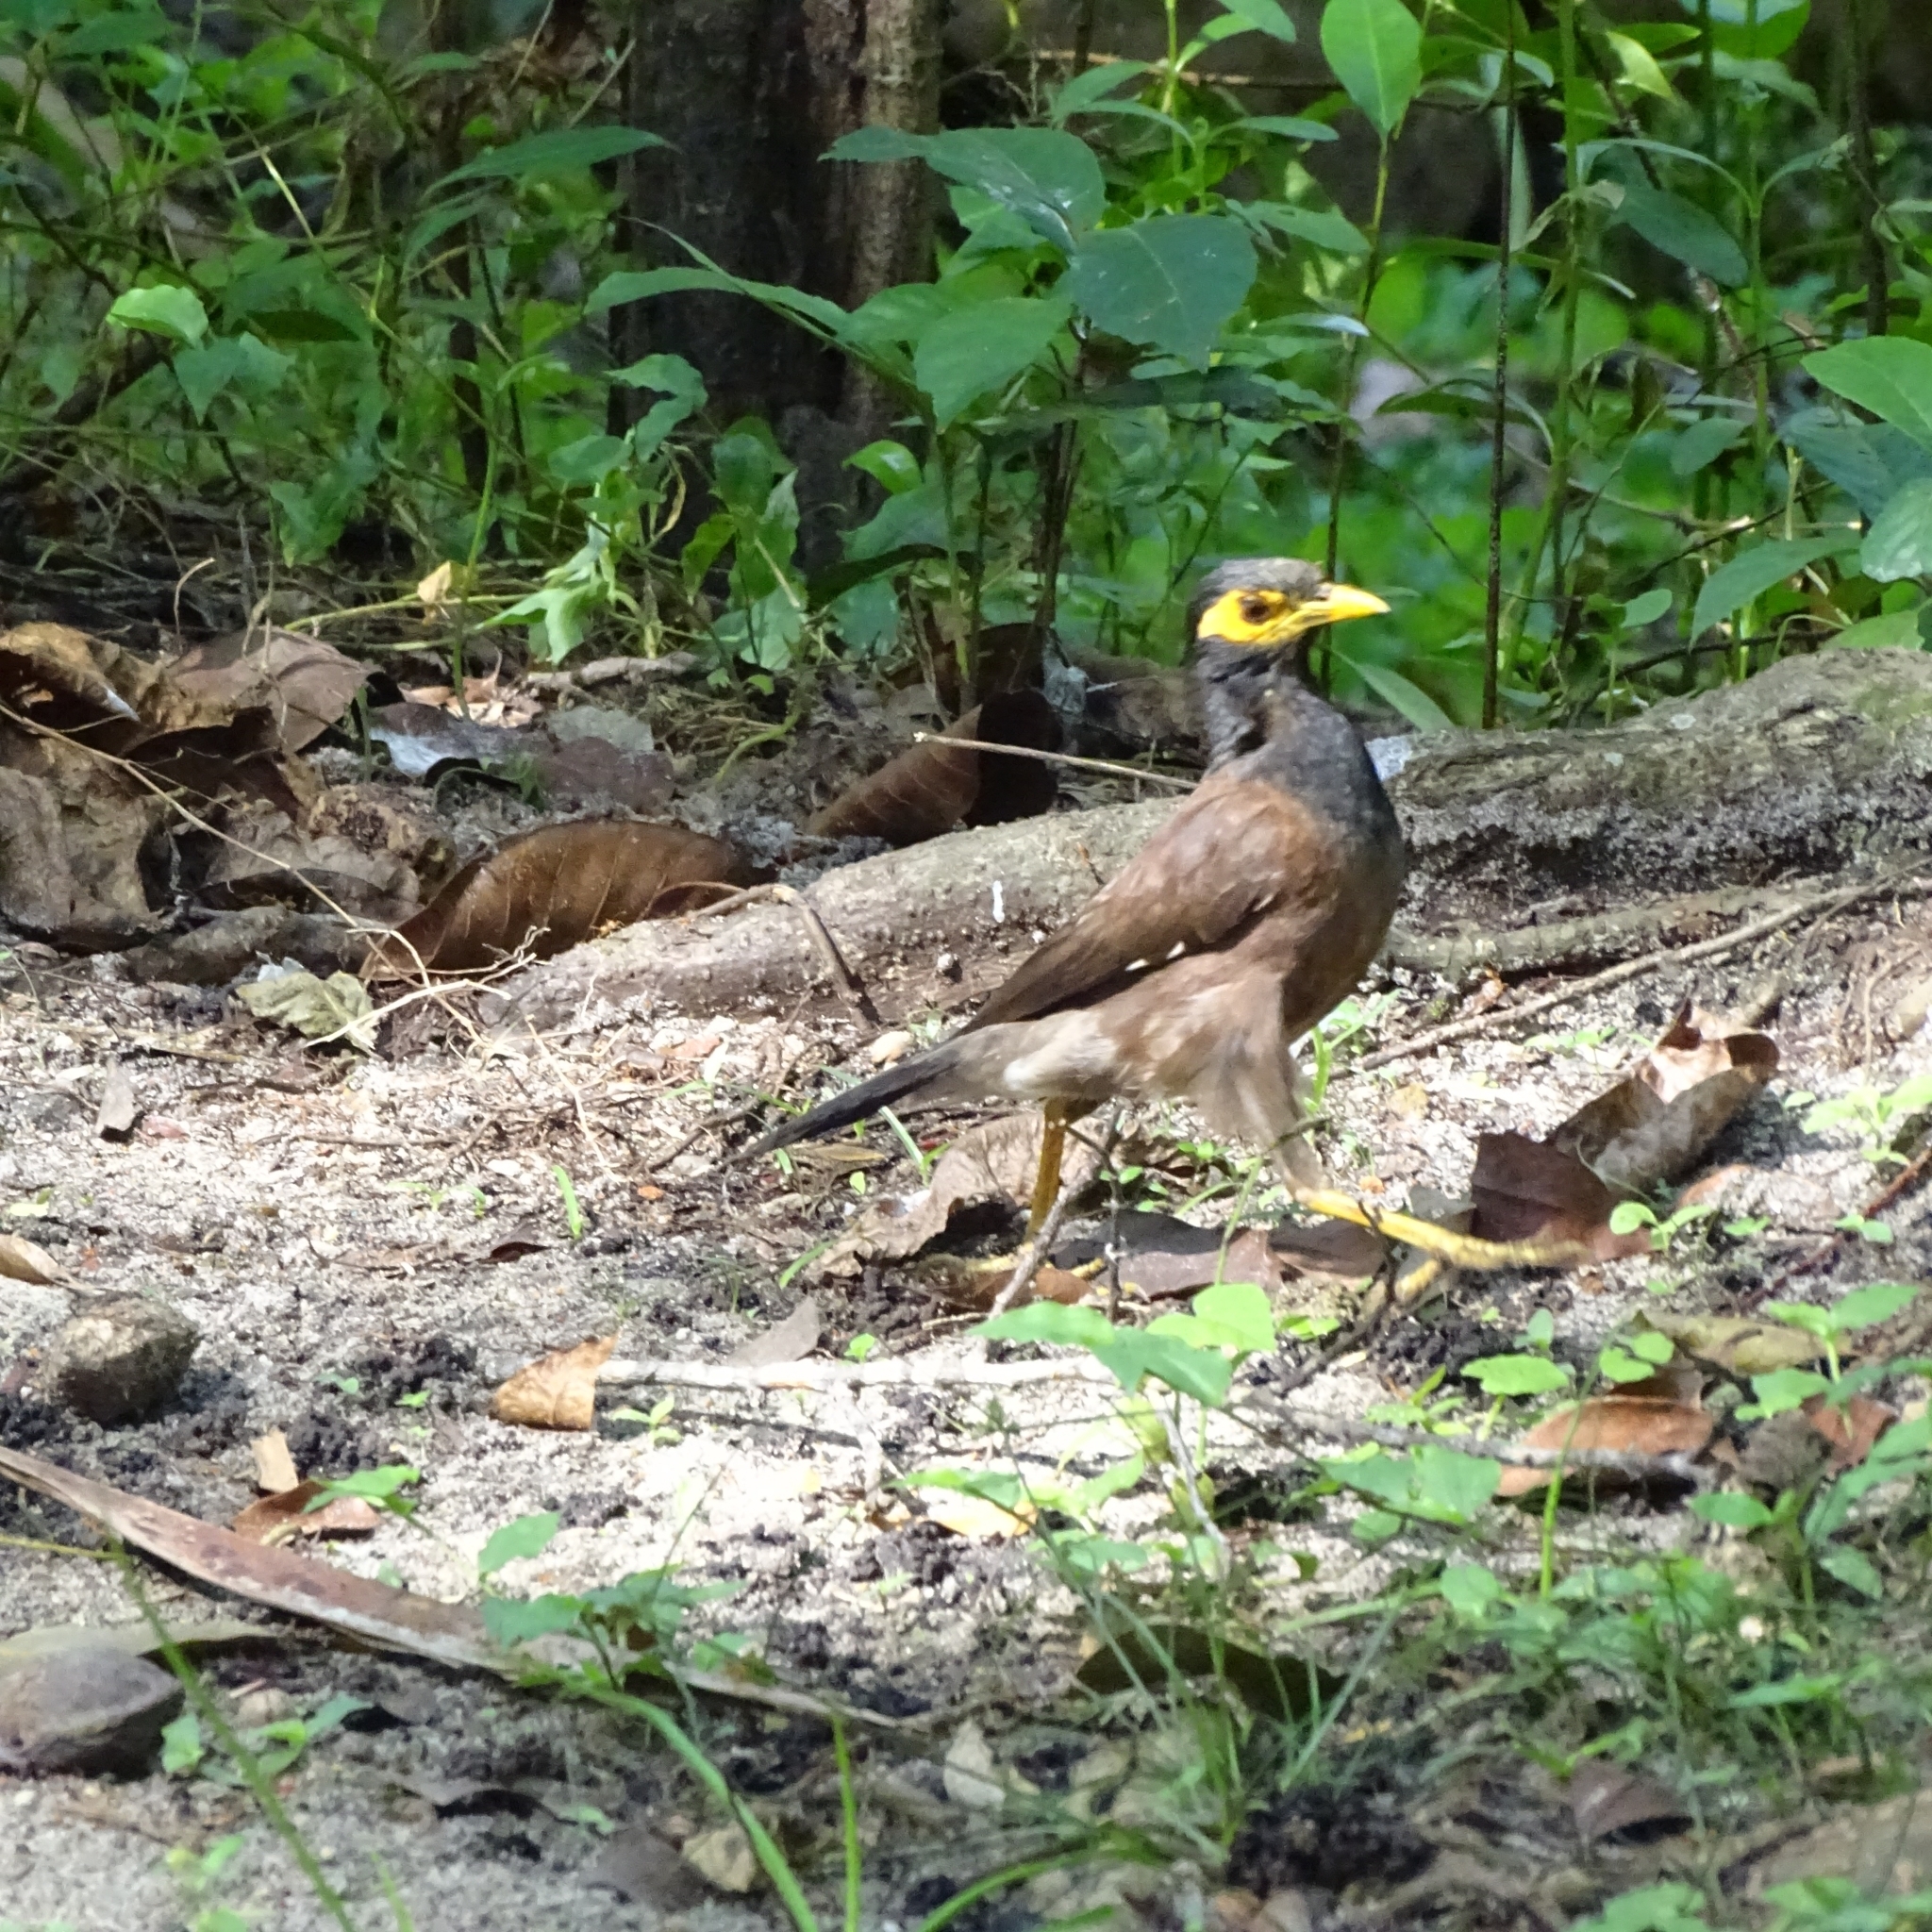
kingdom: Animalia
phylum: Chordata
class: Aves
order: Passeriformes
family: Sturnidae
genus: Acridotheres
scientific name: Acridotheres tristis
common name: Common myna
